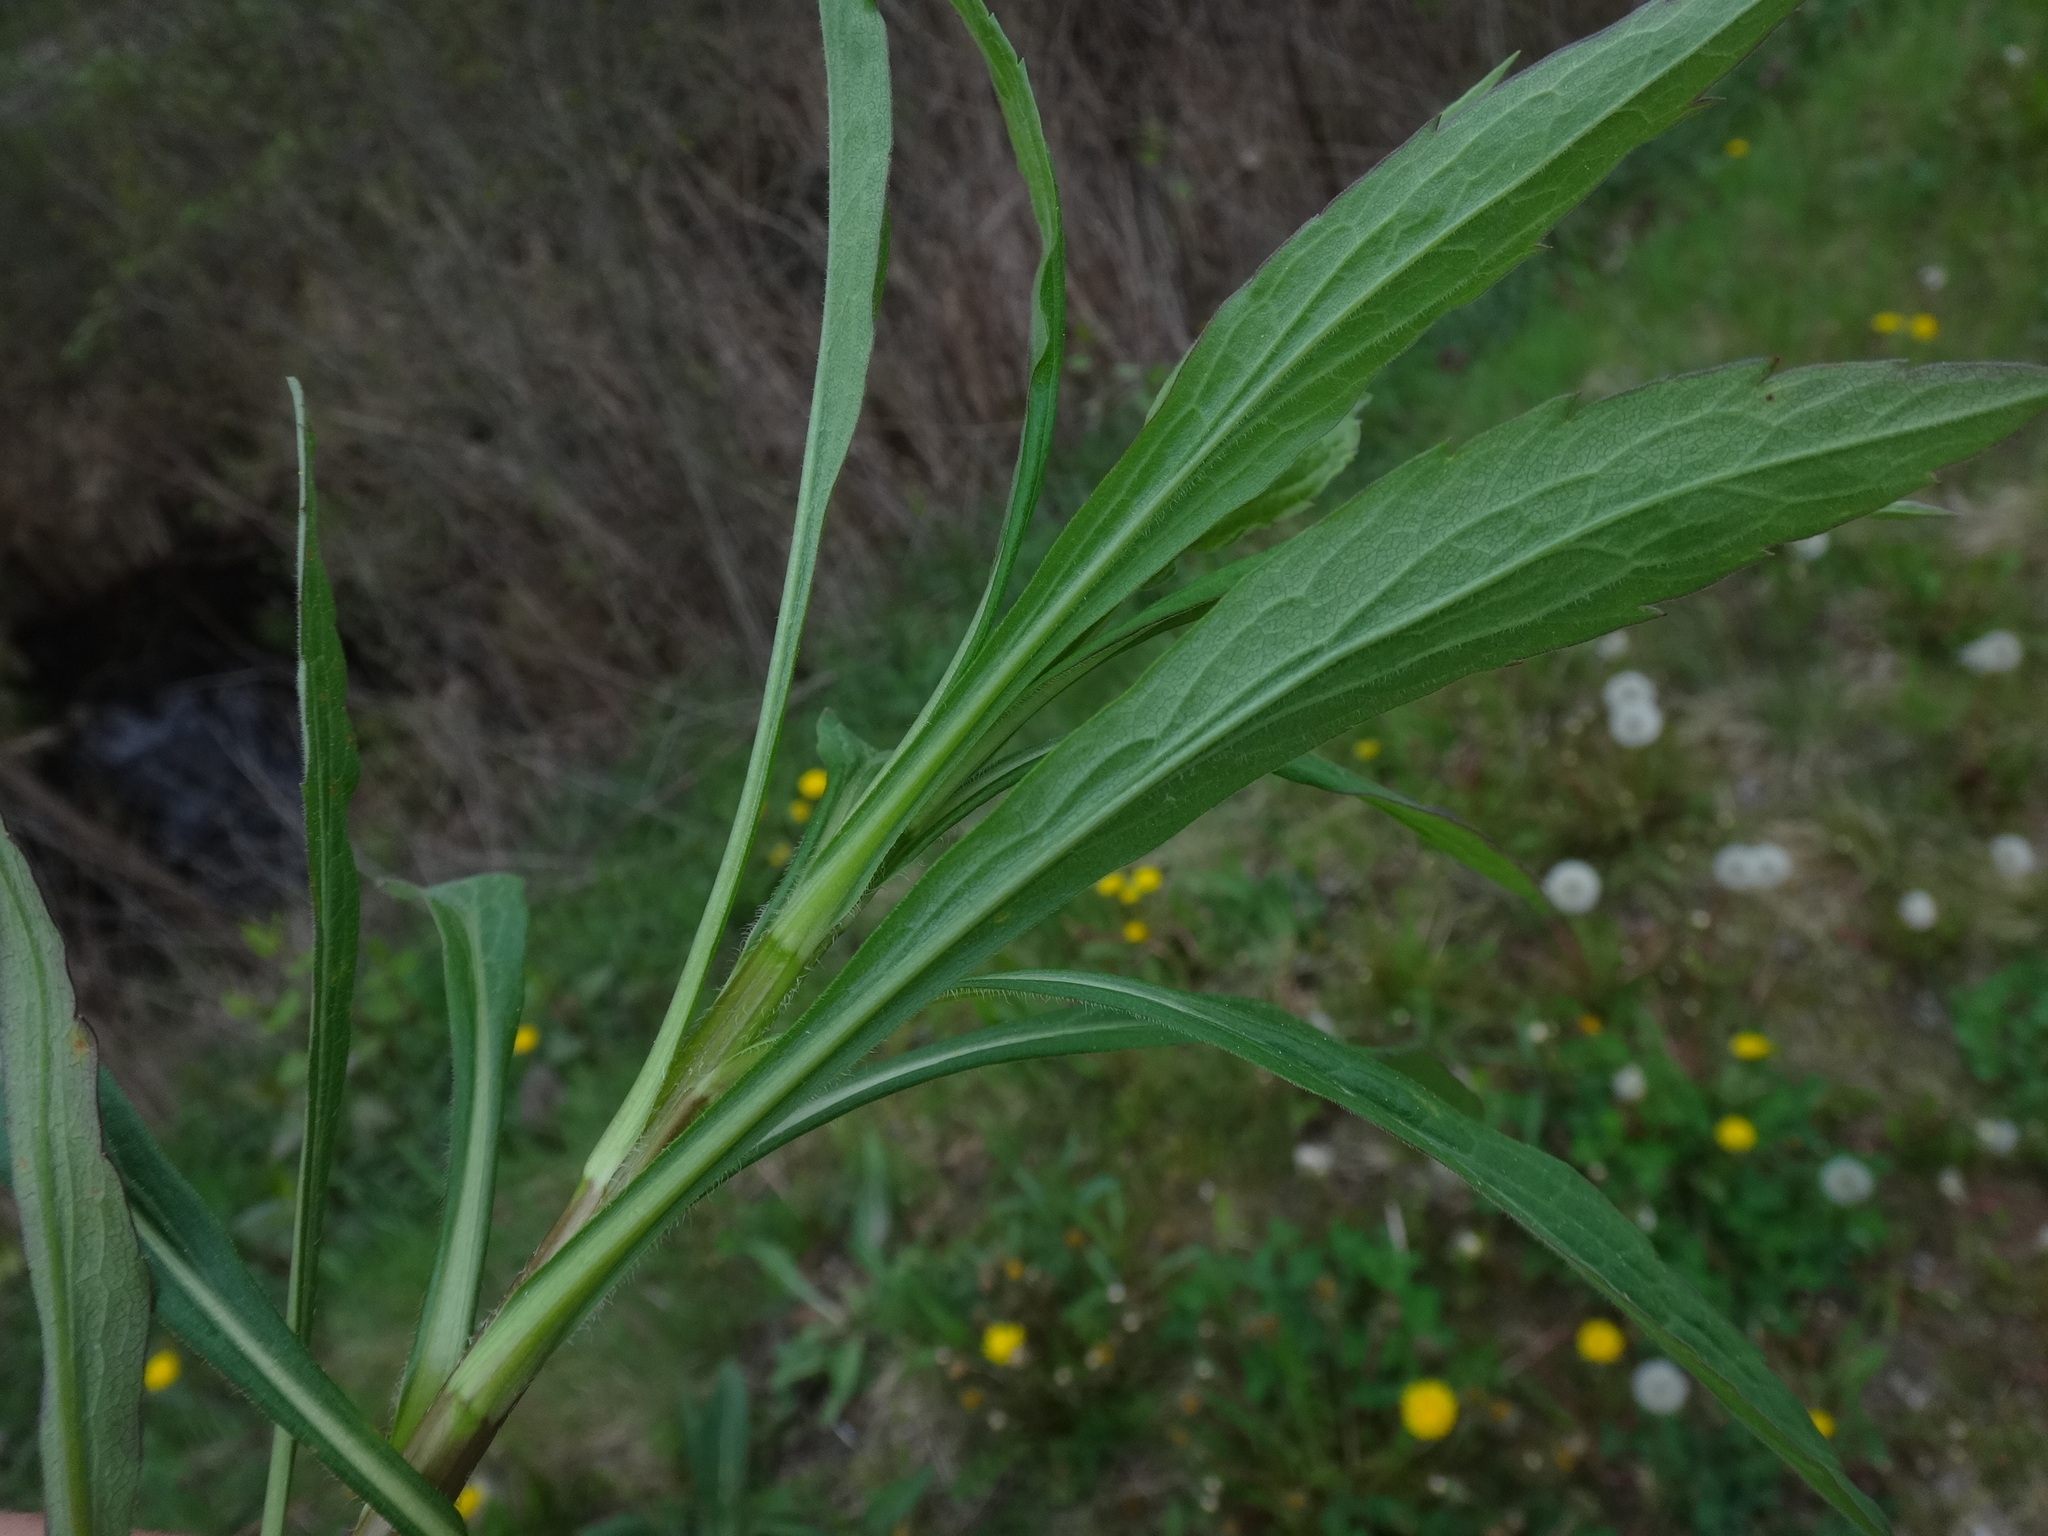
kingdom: Plantae
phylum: Tracheophyta
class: Magnoliopsida
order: Asterales
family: Asteraceae
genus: Solidago
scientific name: Solidago canadensis
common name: Canada goldenrod
